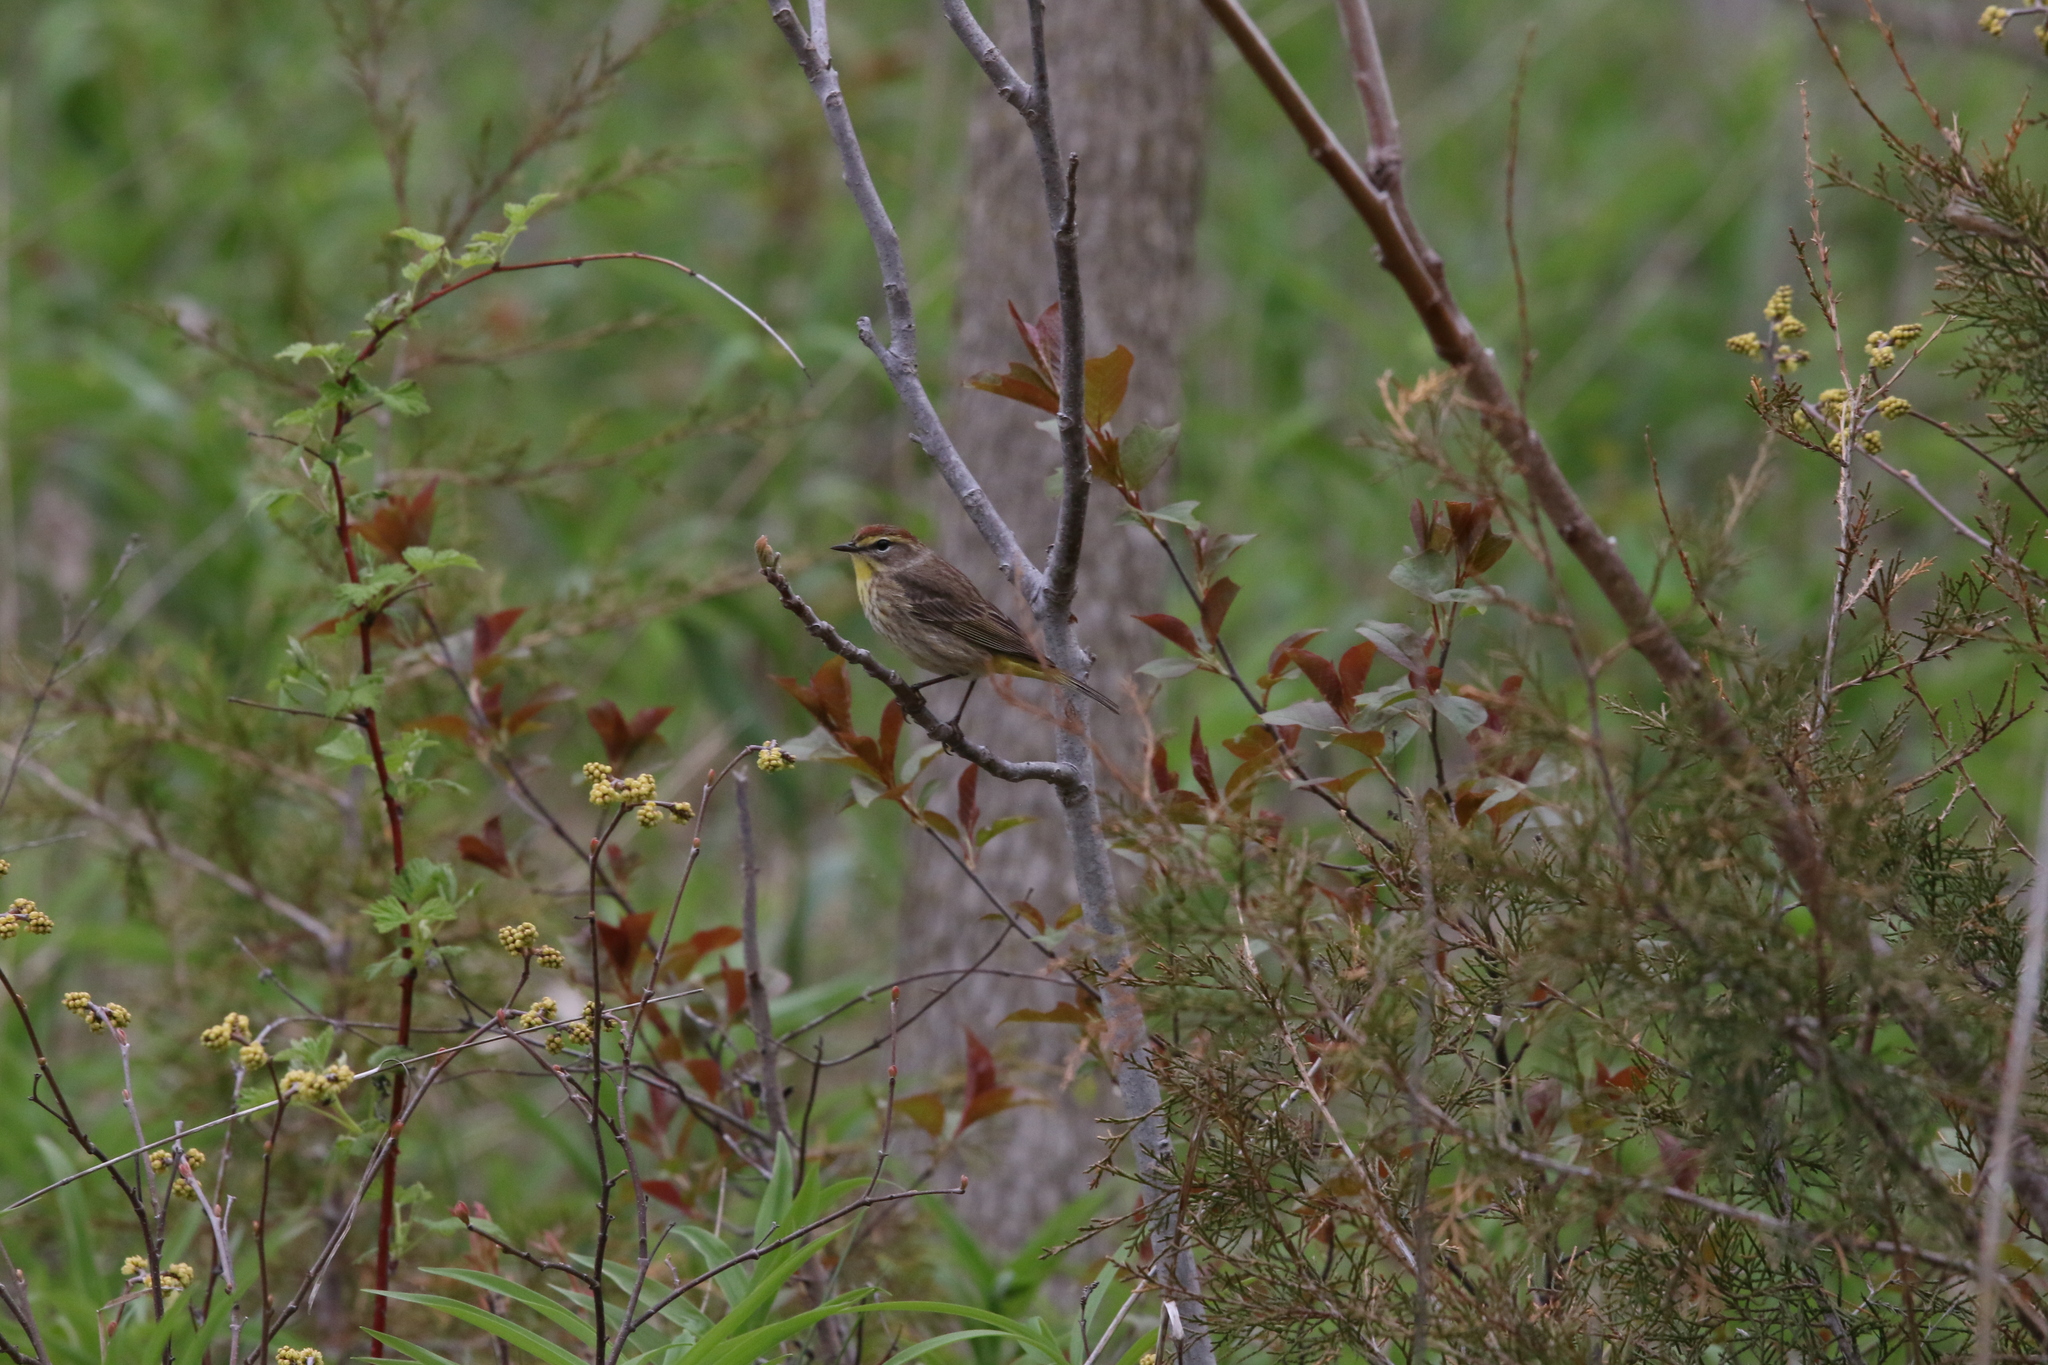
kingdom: Animalia
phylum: Chordata
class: Aves
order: Passeriformes
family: Parulidae
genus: Setophaga
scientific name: Setophaga palmarum
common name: Palm warbler
